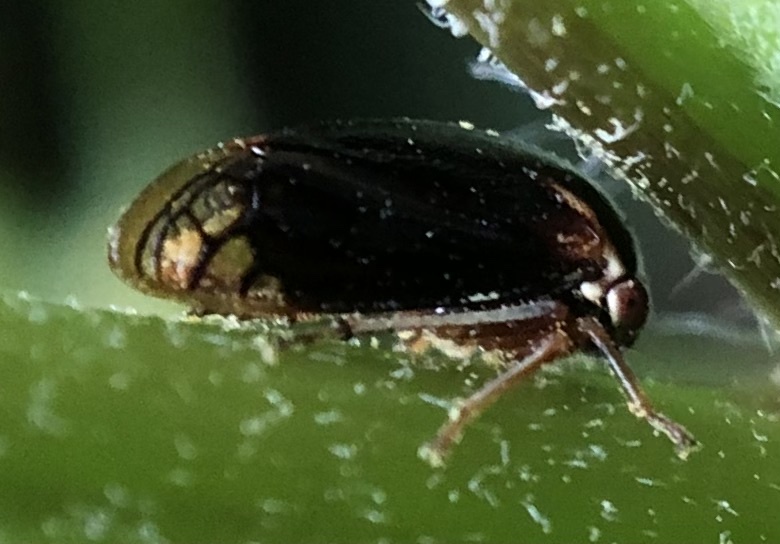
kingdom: Animalia
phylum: Arthropoda
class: Insecta
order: Hemiptera
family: Membracidae
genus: Acutalis
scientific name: Acutalis tartarea
